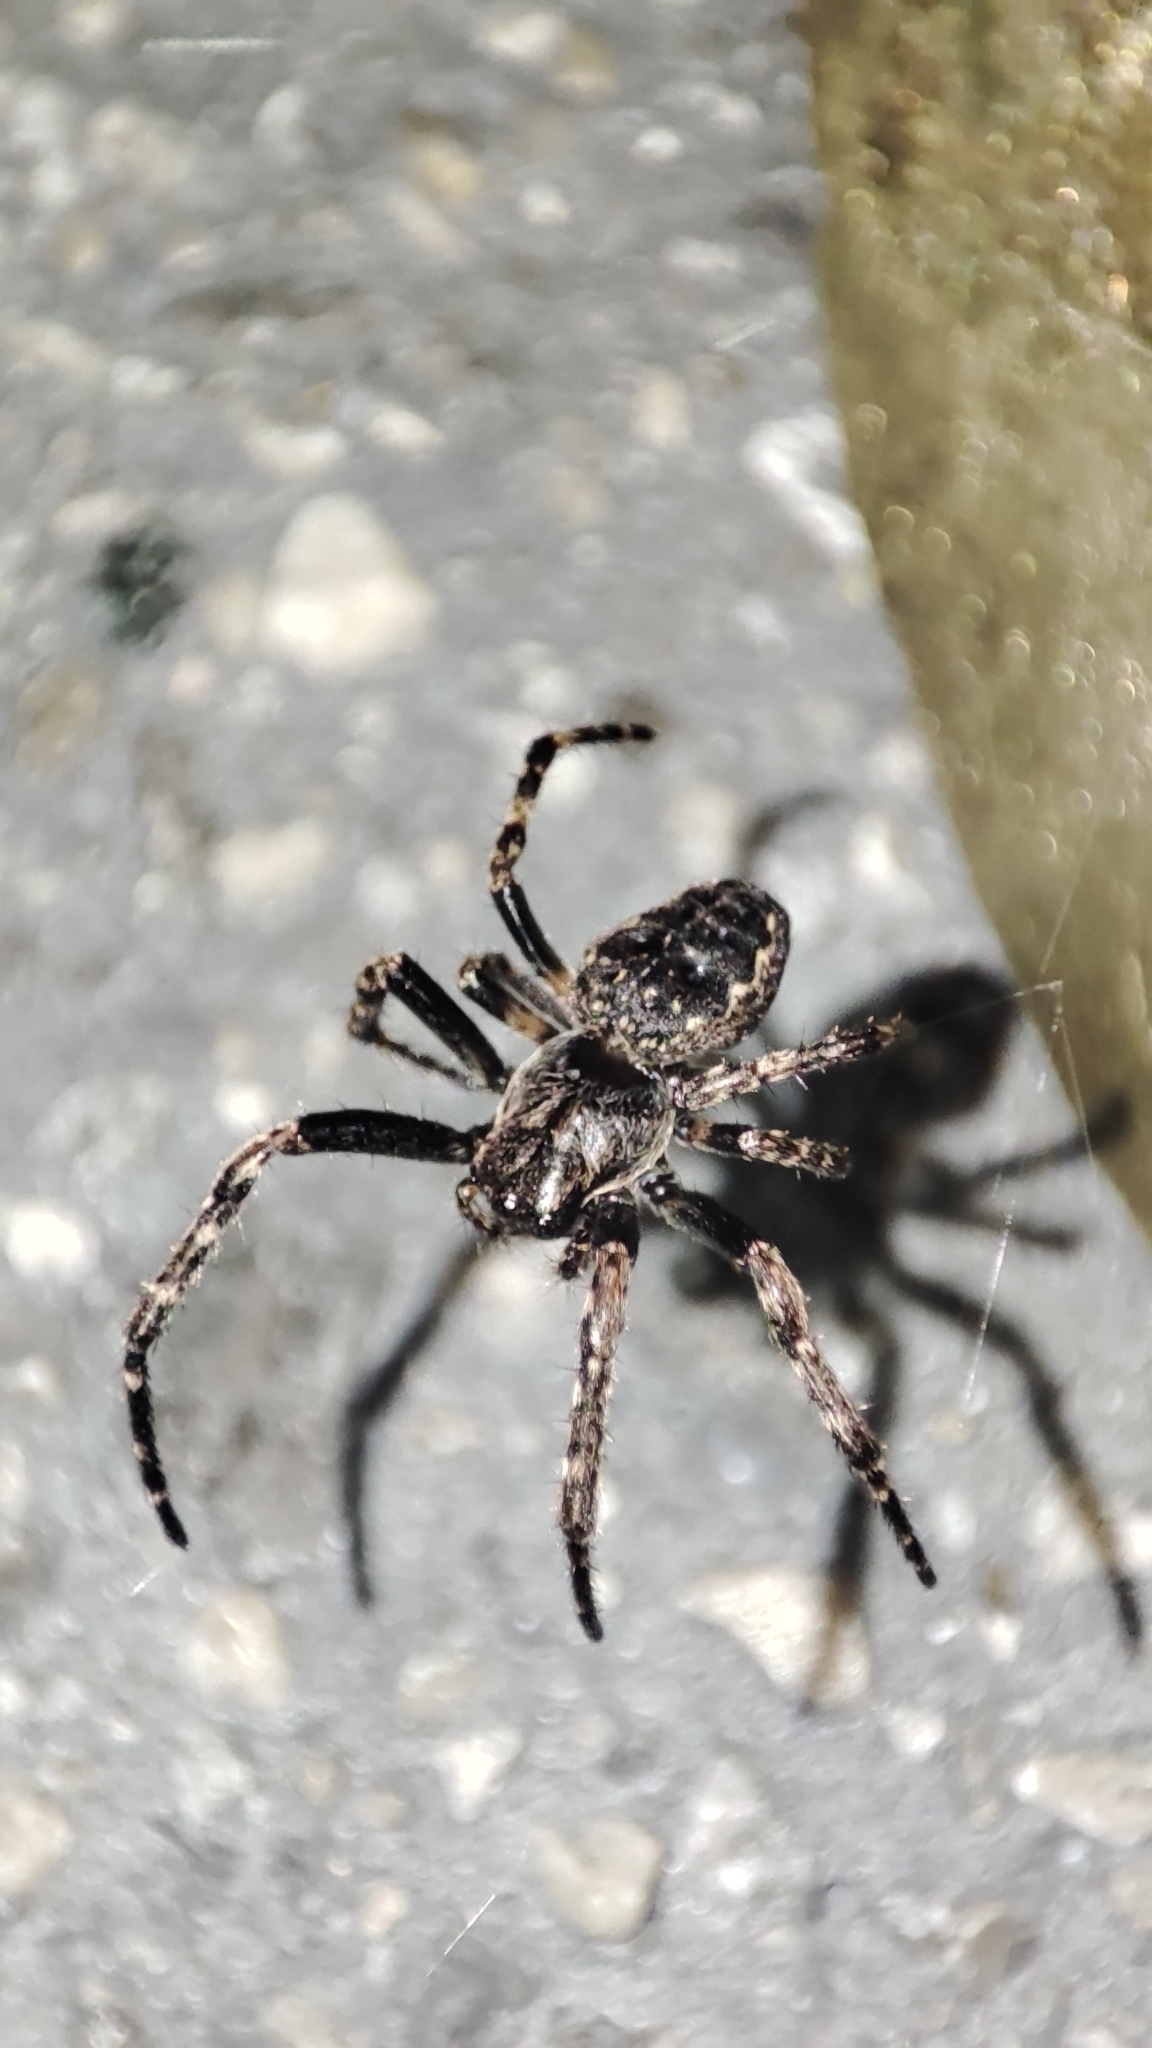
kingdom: Animalia
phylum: Arthropoda
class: Arachnida
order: Araneae
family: Araneidae
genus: Nuctenea
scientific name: Nuctenea umbratica
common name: Toad spider
